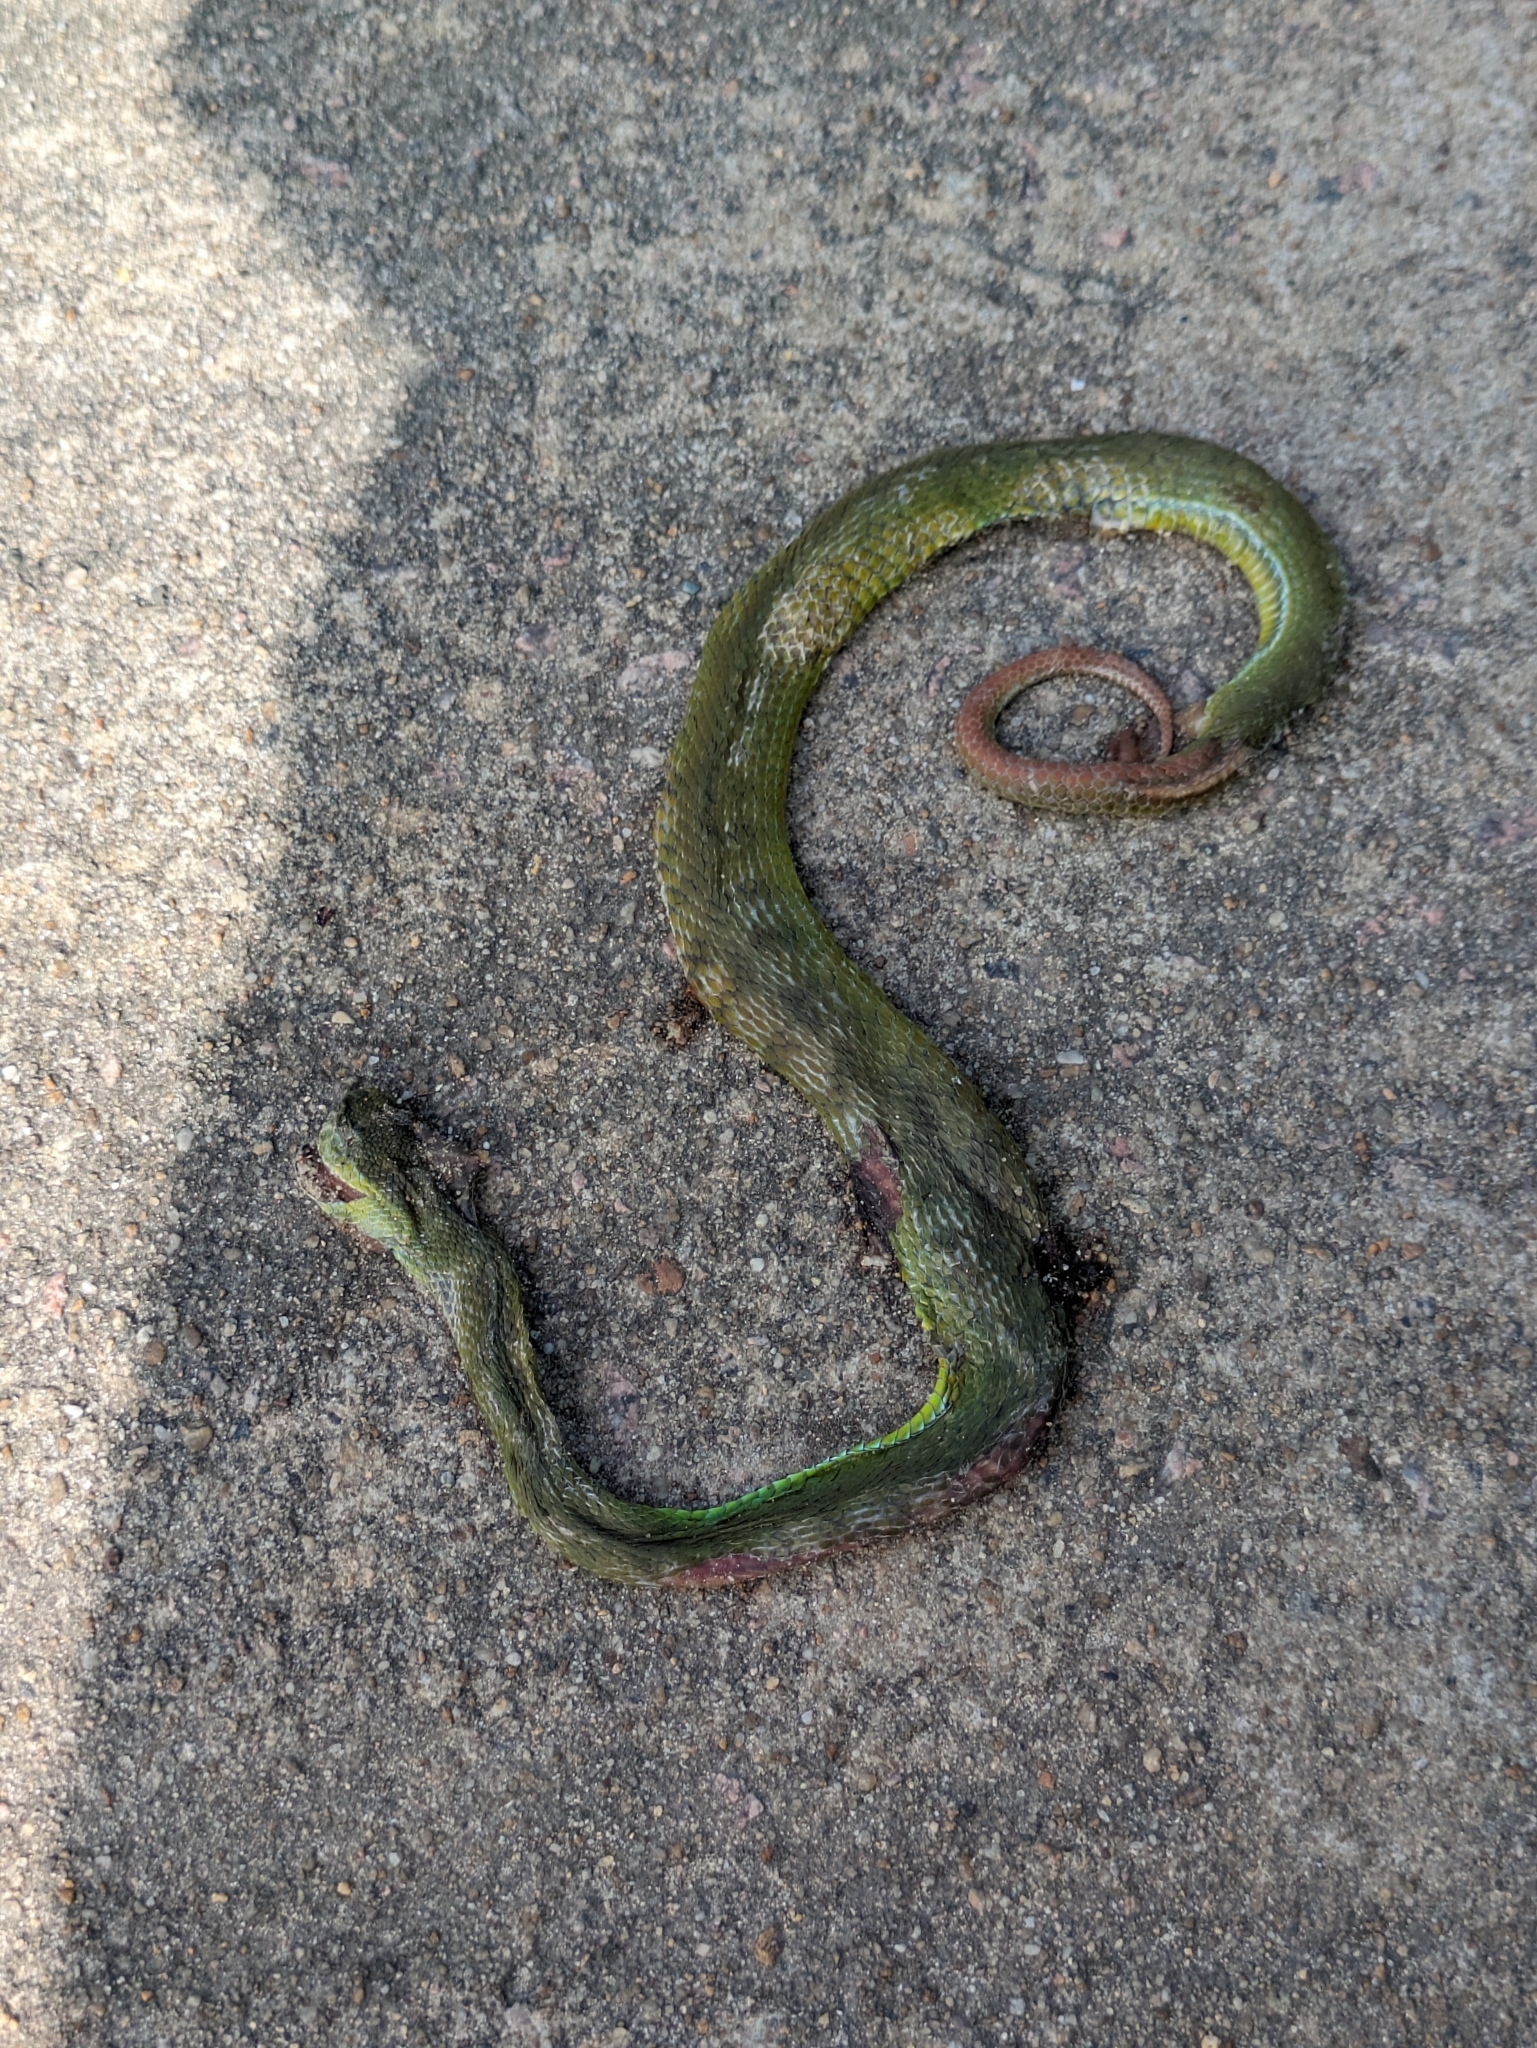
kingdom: Animalia
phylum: Chordata
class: Squamata
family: Viperidae
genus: Trimeresurus
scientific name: Trimeresurus albolabris
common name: White-lipped pitviper
